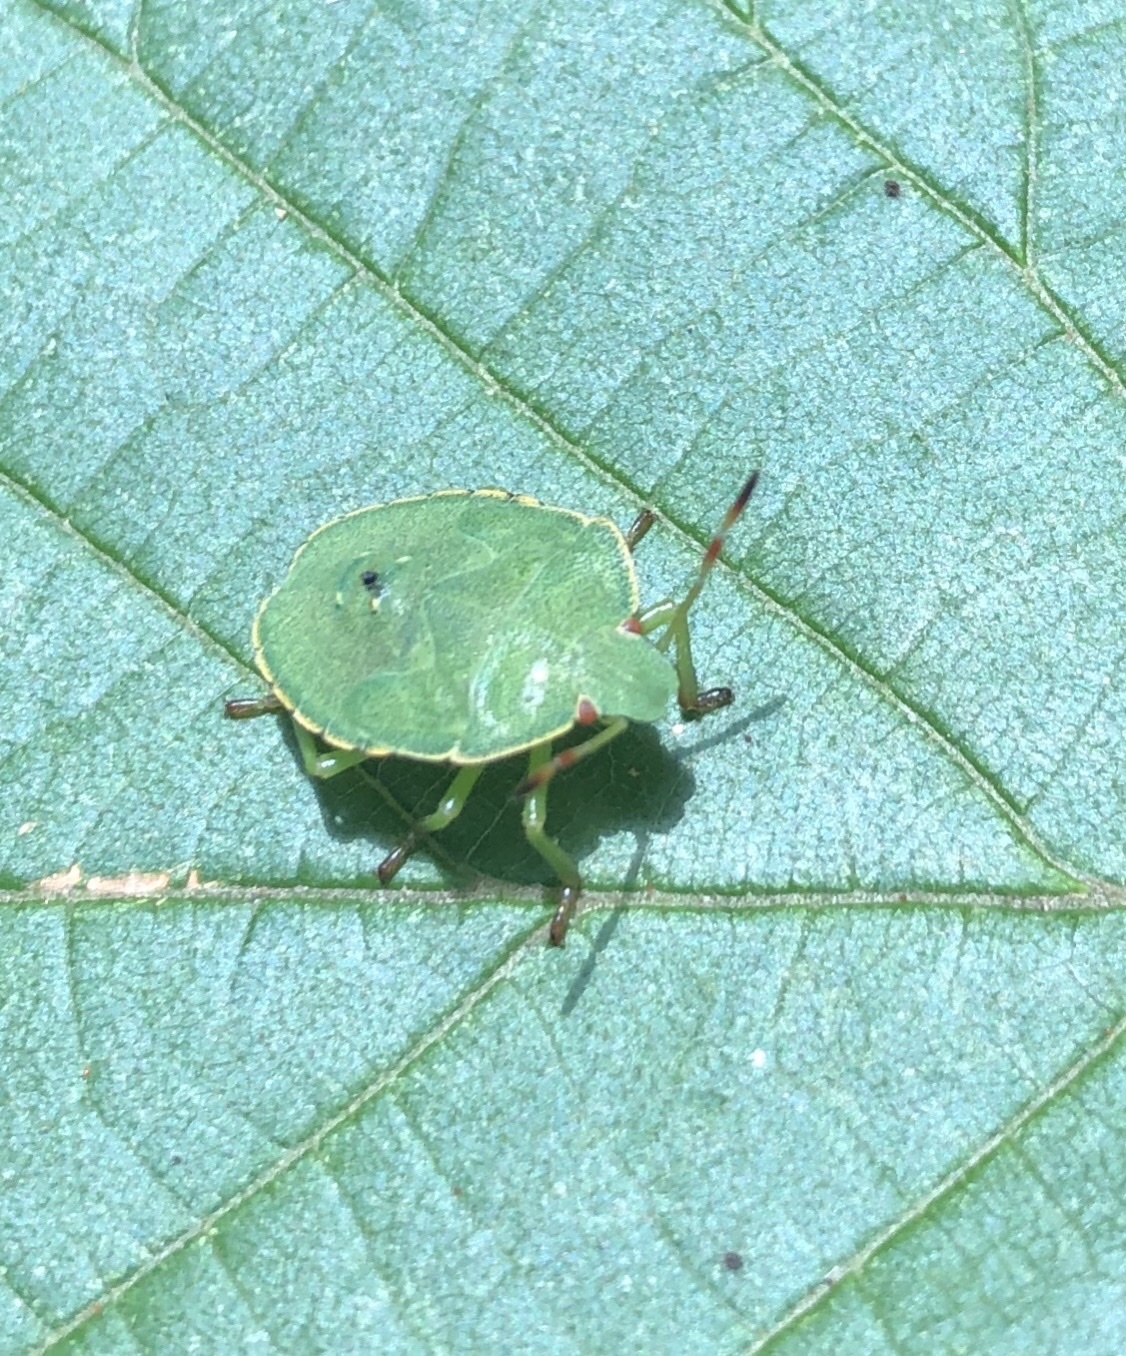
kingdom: Animalia
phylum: Arthropoda
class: Insecta
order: Hemiptera
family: Pentatomidae
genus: Palomena
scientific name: Palomena prasina
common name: Green shieldbug
